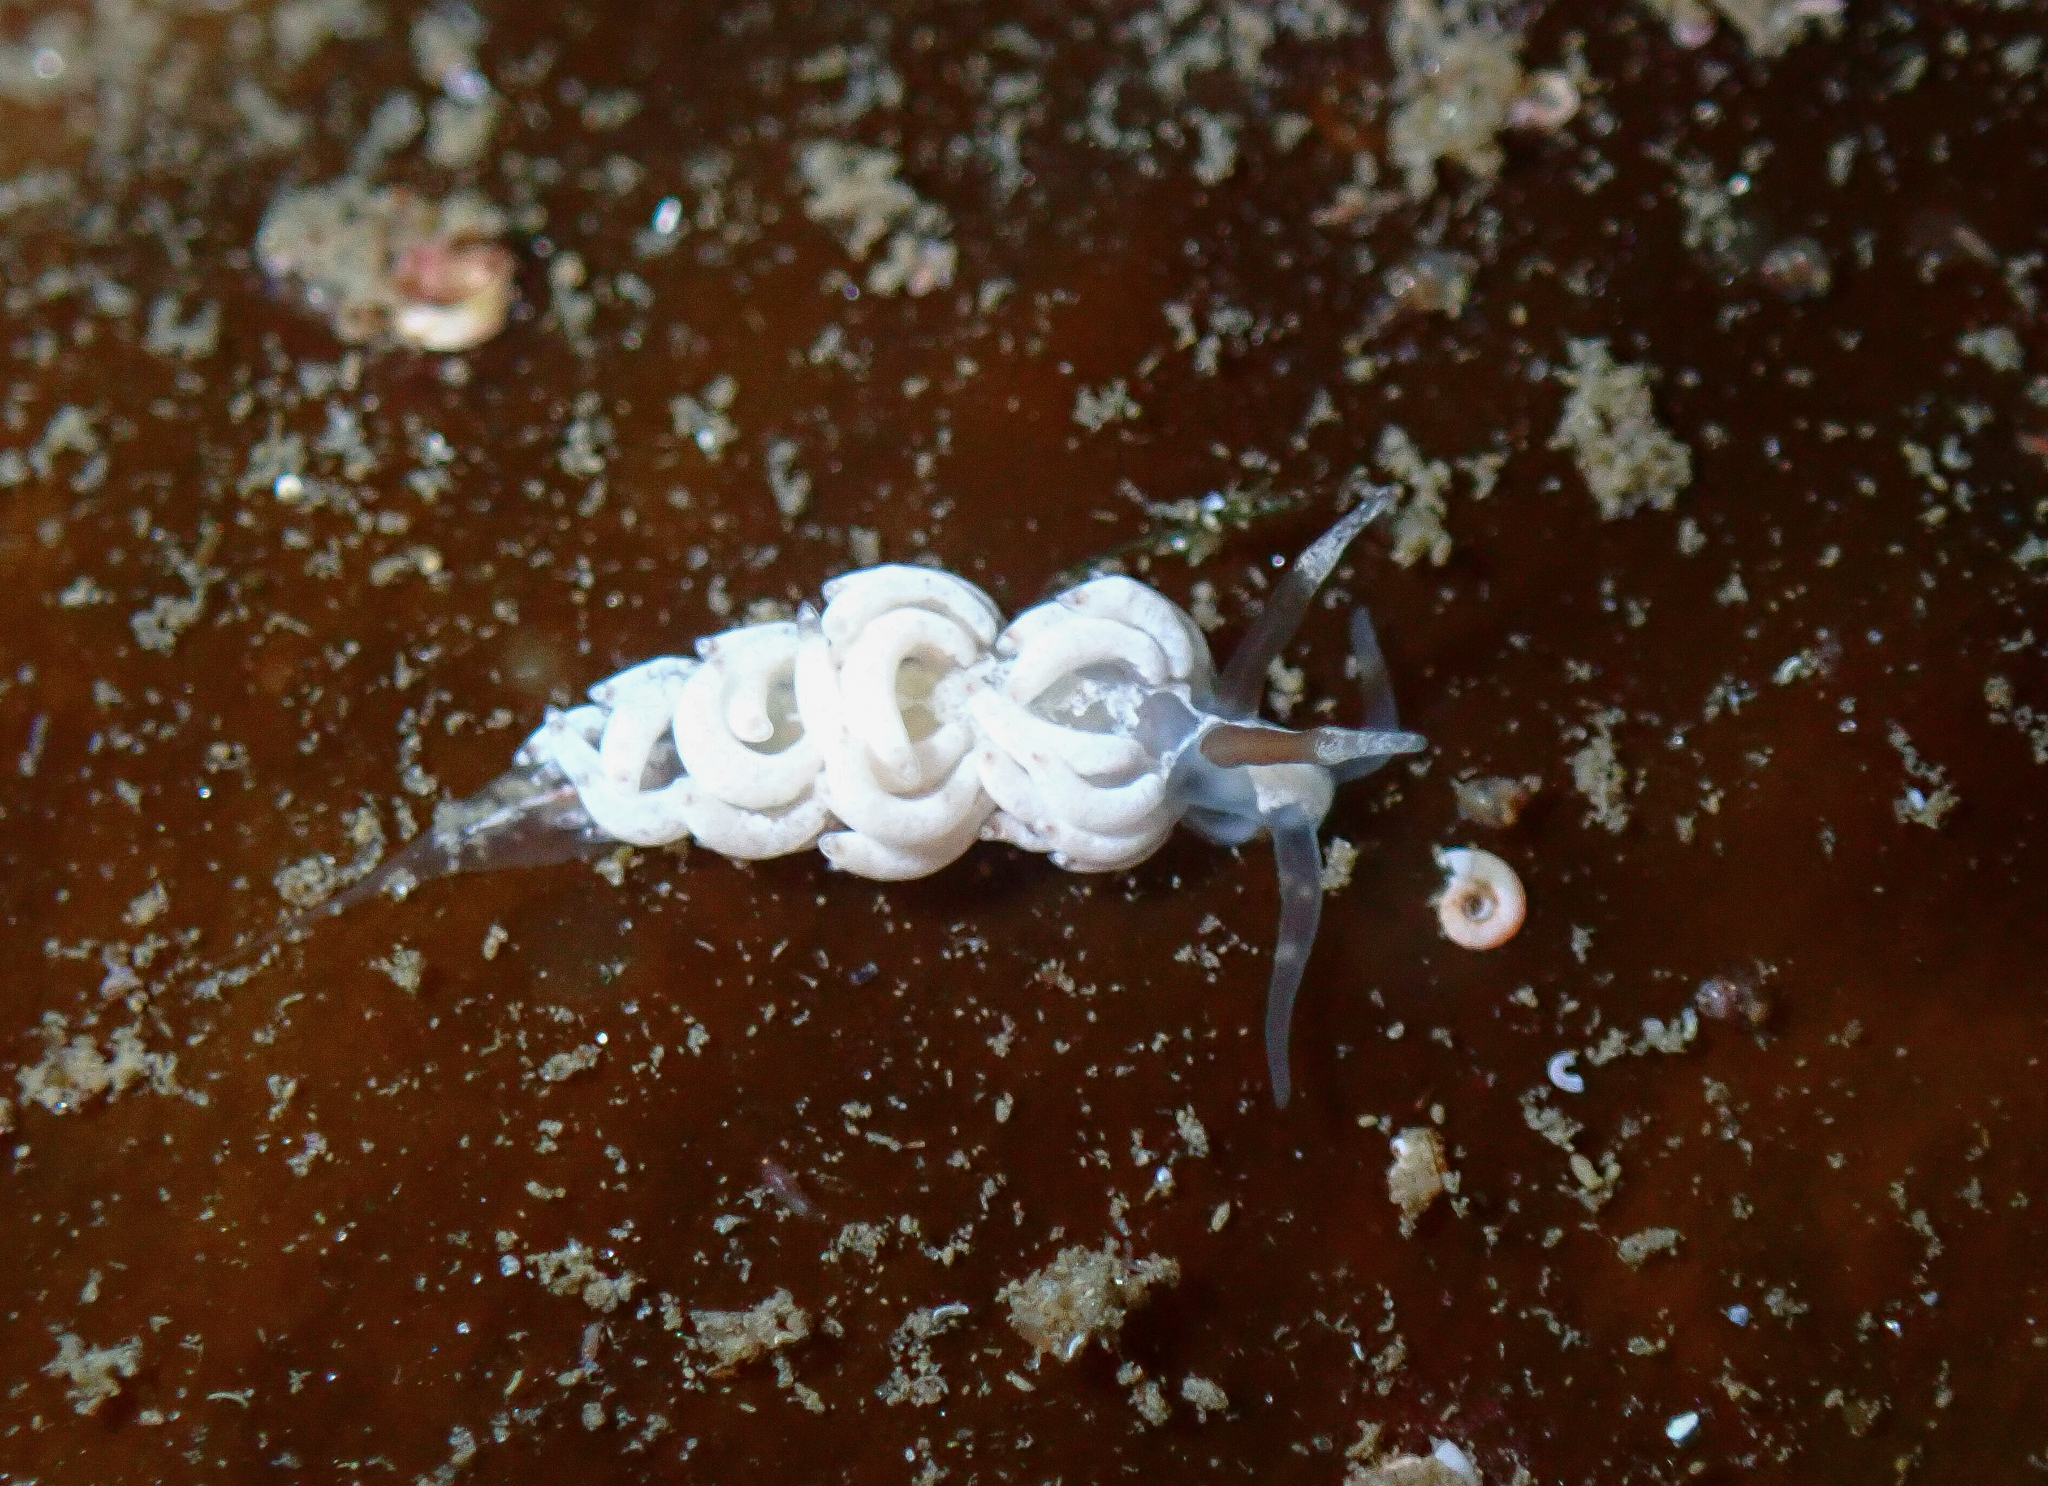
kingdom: Animalia
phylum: Mollusca
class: Gastropoda
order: Nudibranchia
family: Facelinidae
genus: Favorinus
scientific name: Favorinus branchialis
